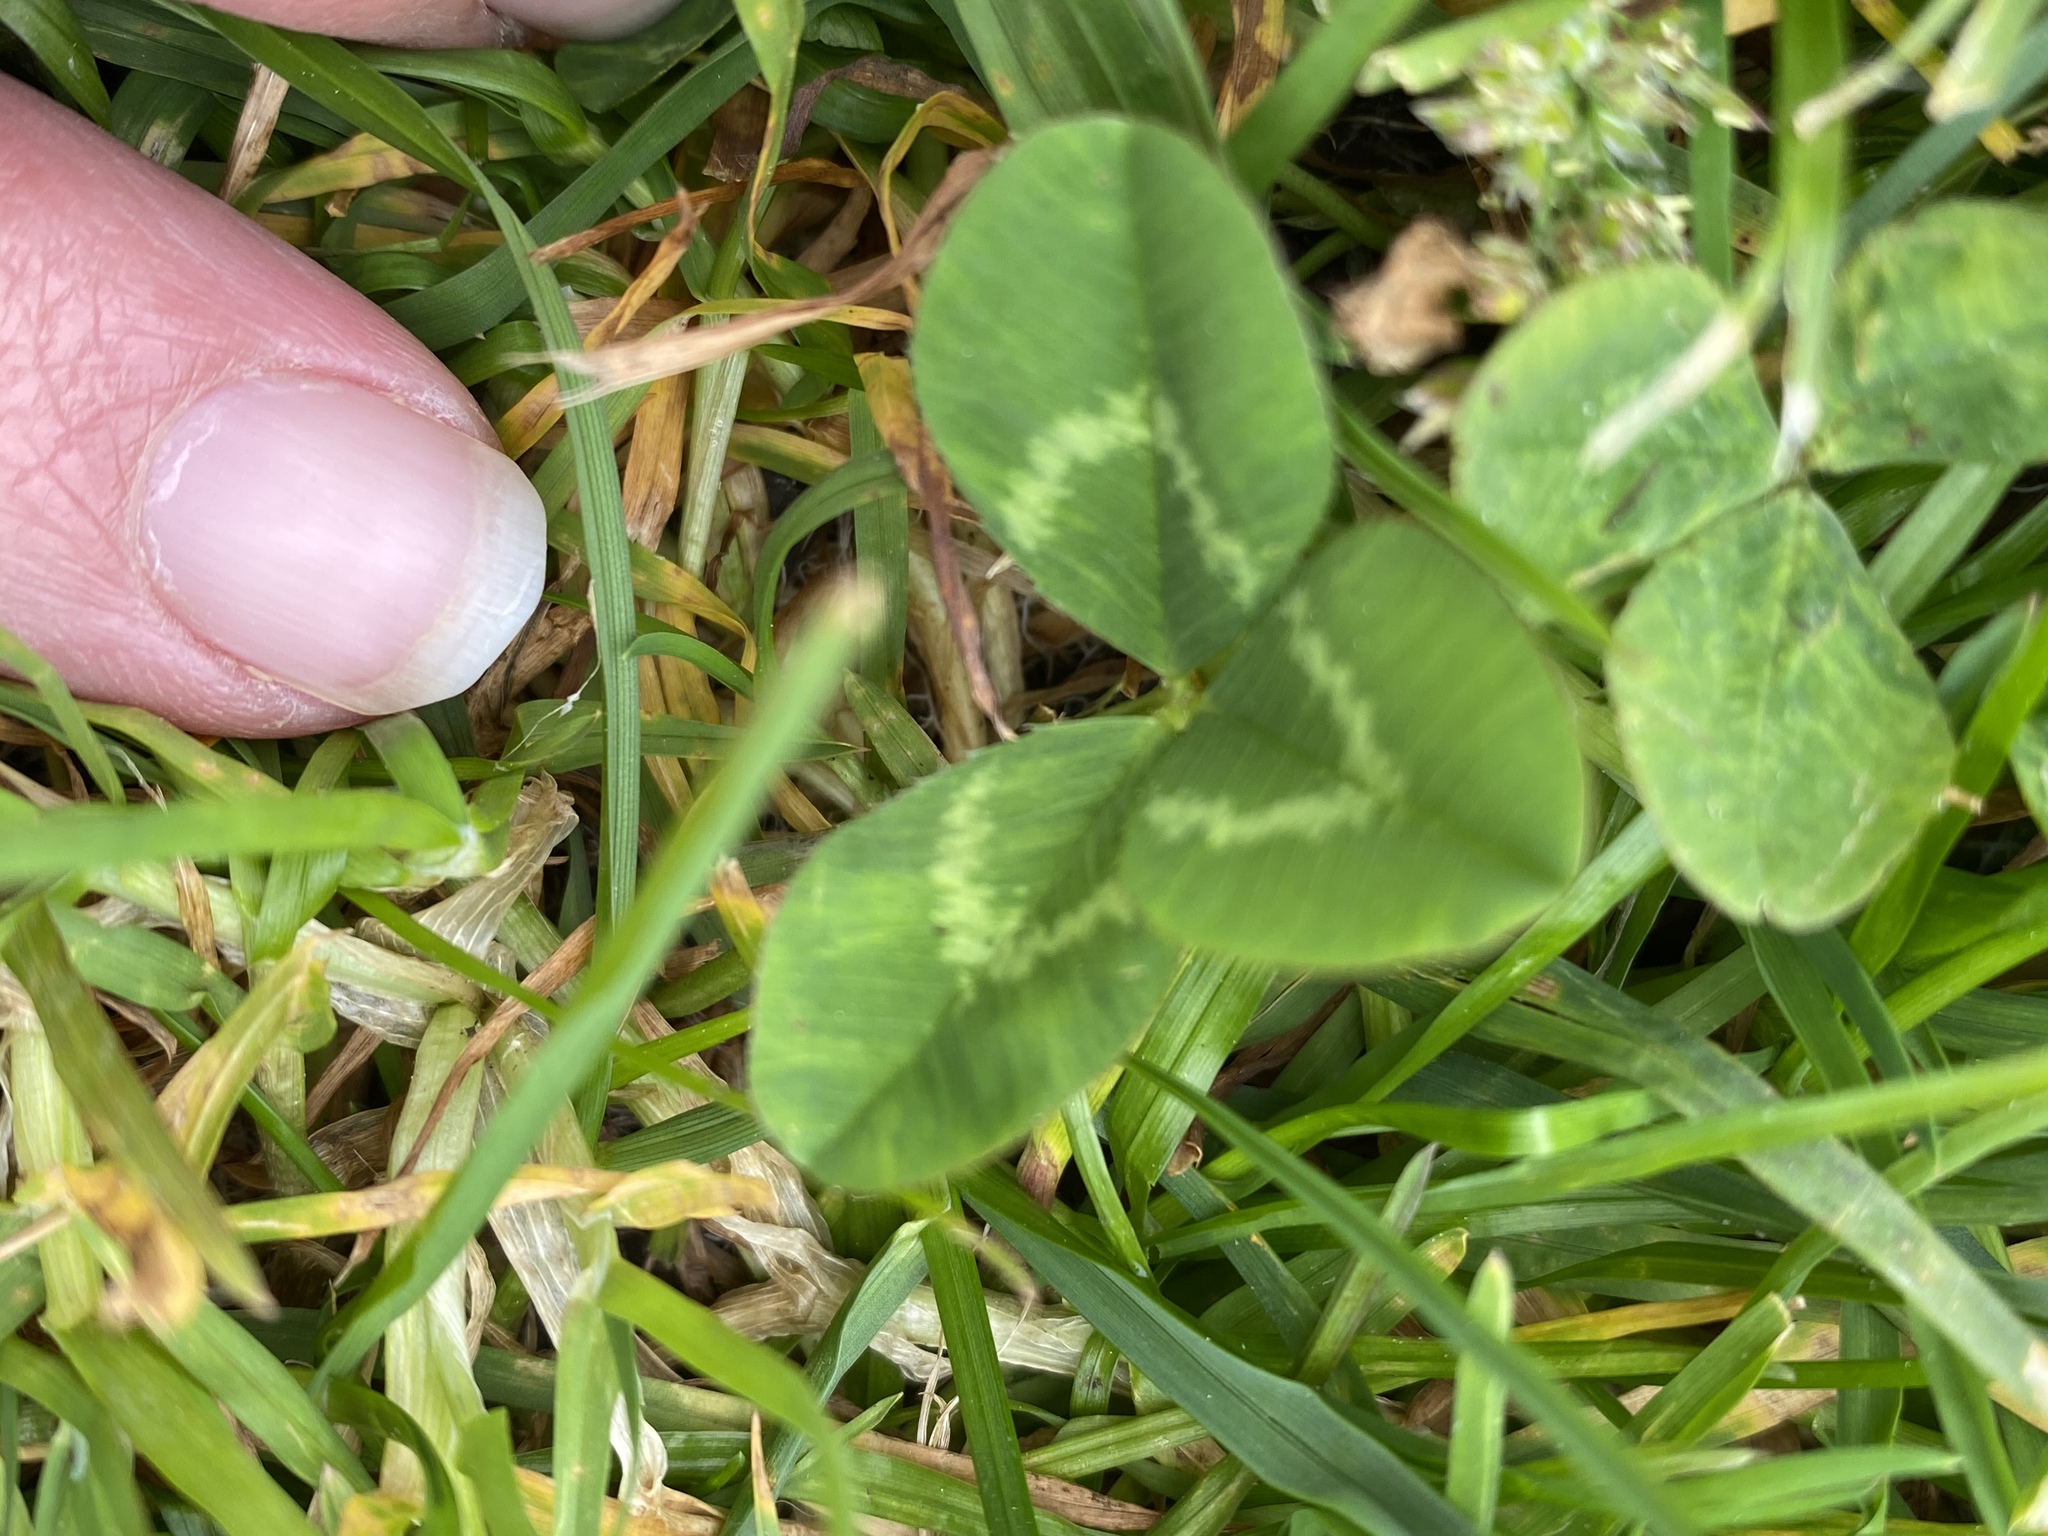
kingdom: Plantae
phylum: Tracheophyta
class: Magnoliopsida
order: Fabales
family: Fabaceae
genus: Trifolium
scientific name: Trifolium repens
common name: White clover
